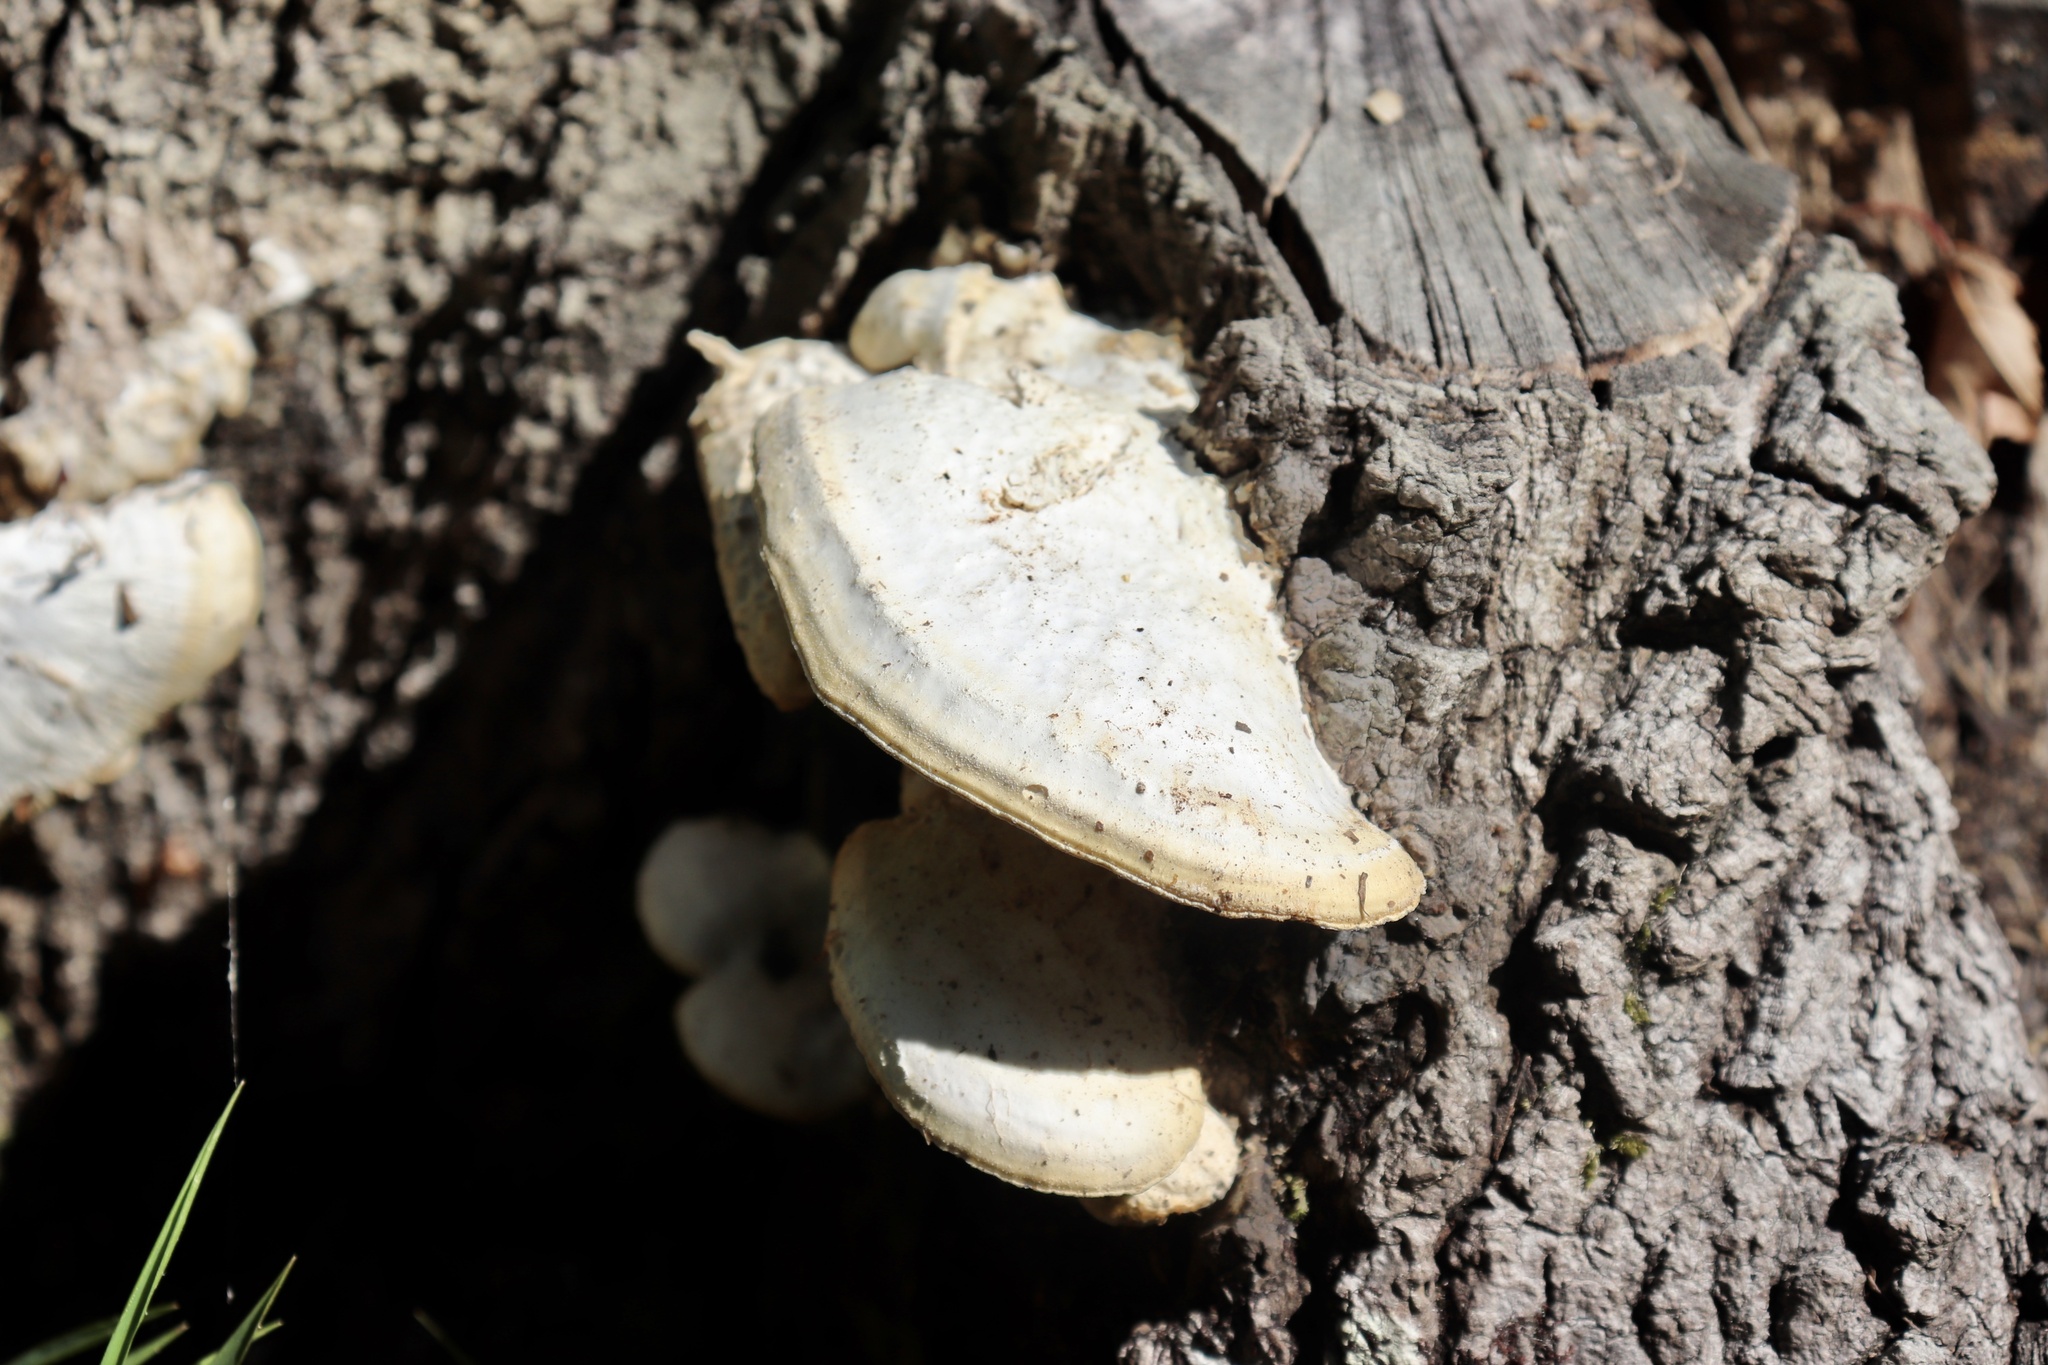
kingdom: Fungi
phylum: Basidiomycota
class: Agaricomycetes
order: Polyporales
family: Polyporaceae
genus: Trametes
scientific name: Trametes lactinea
